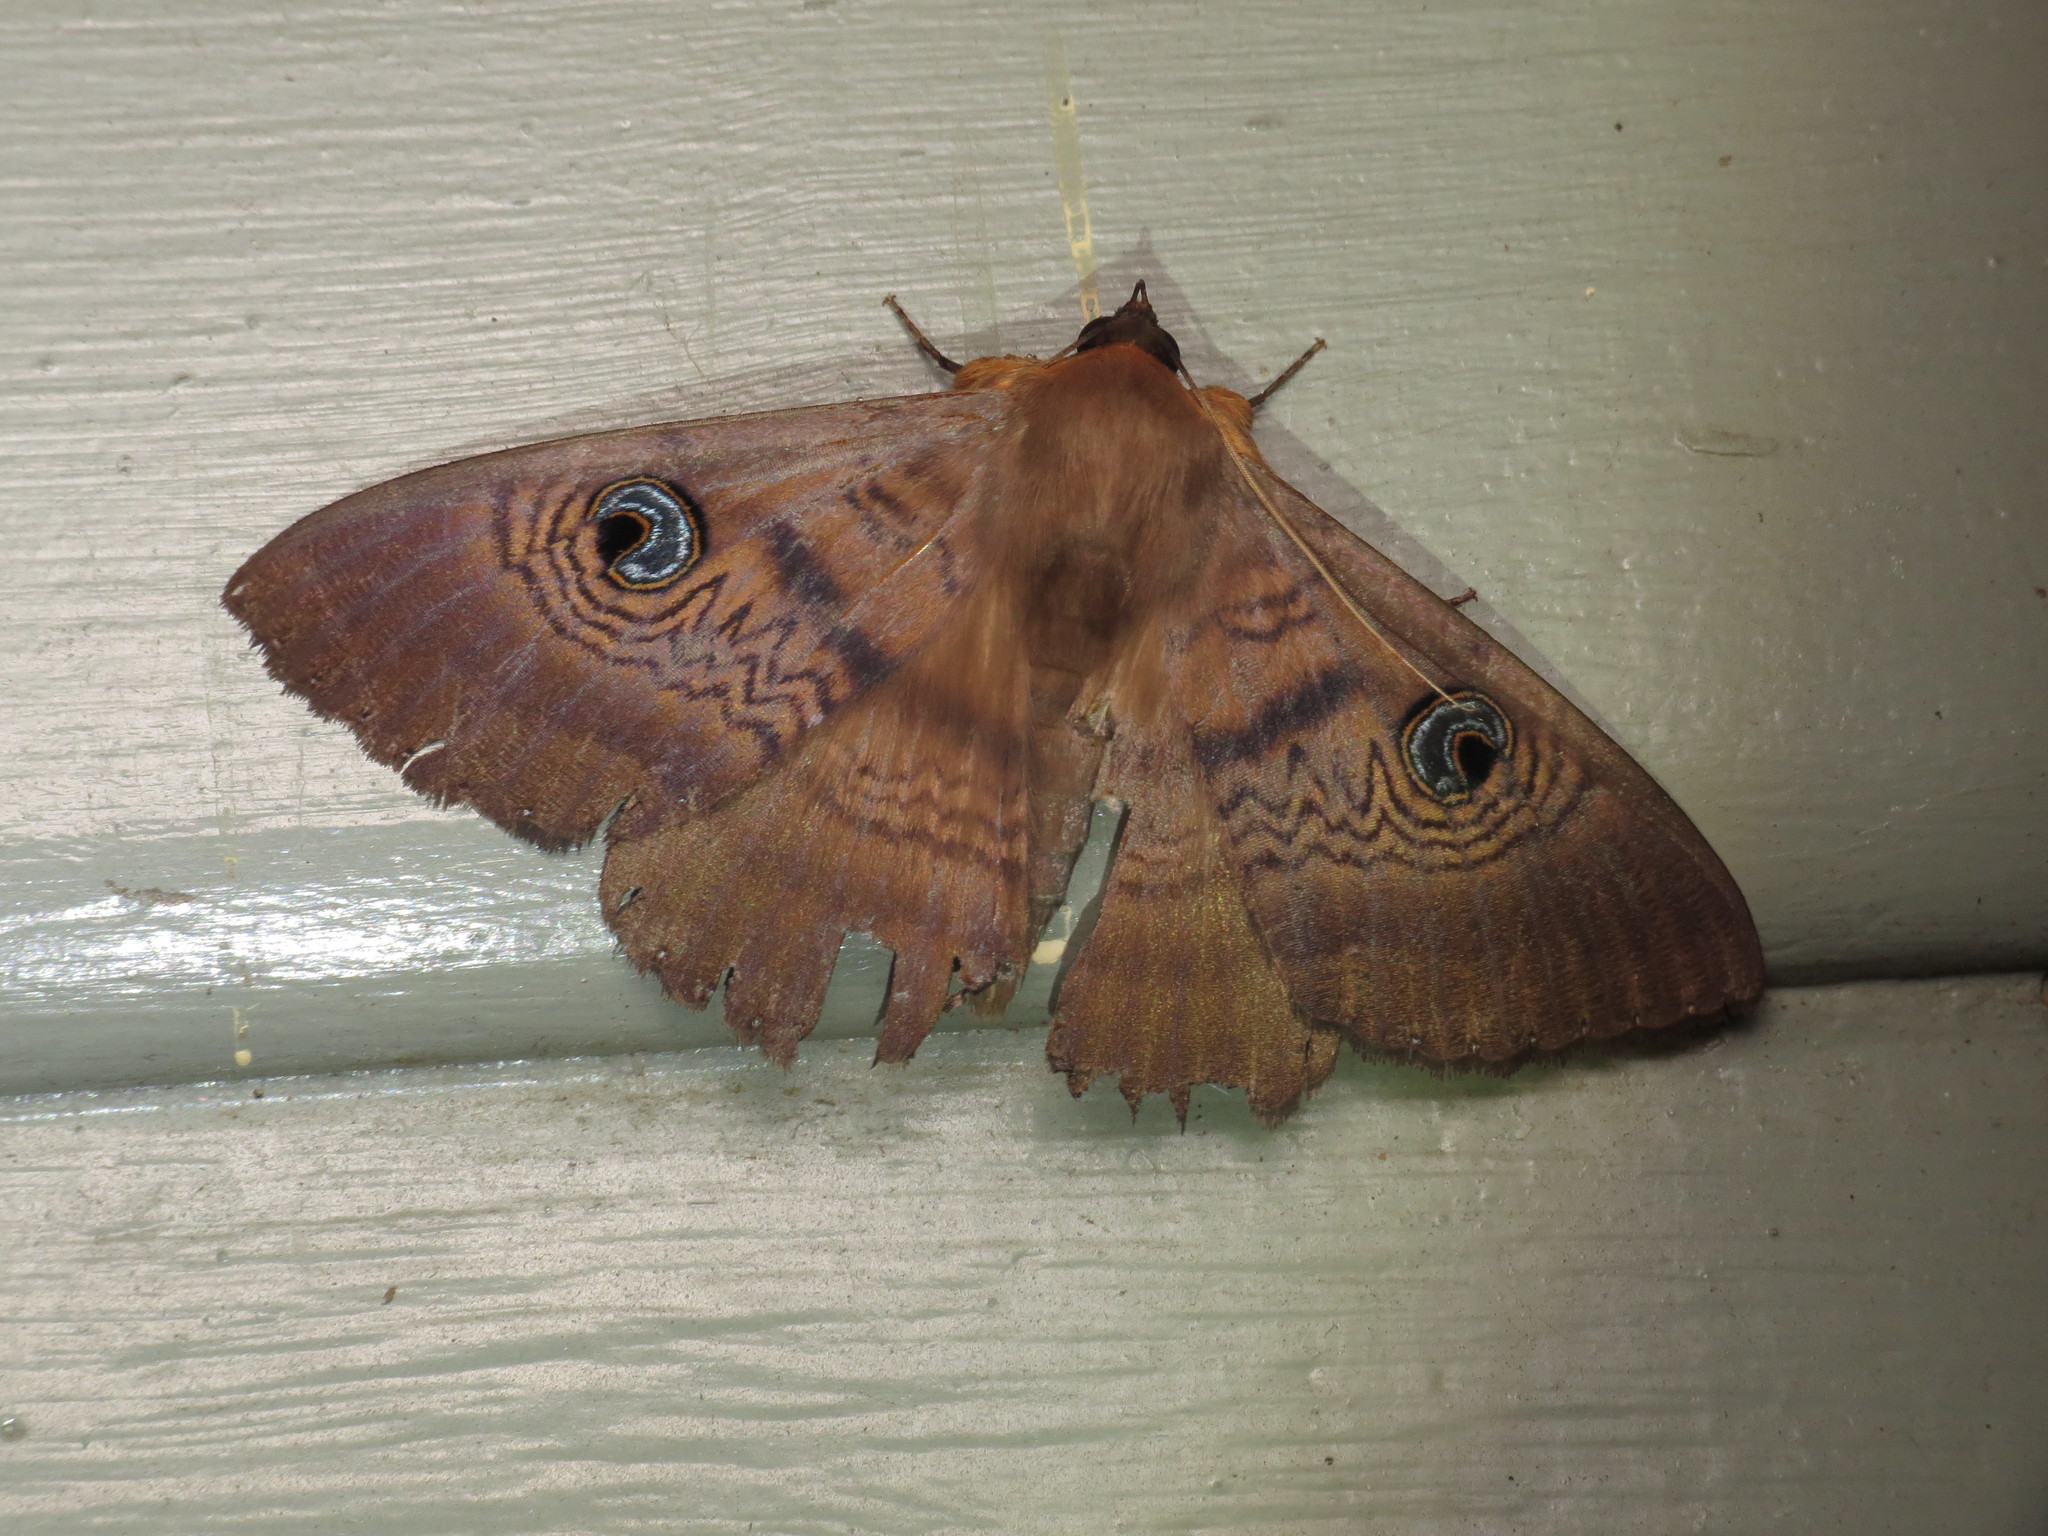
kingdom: Animalia
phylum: Arthropoda
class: Insecta
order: Lepidoptera
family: Erebidae
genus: Dasypodia
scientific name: Dasypodia selenophora
